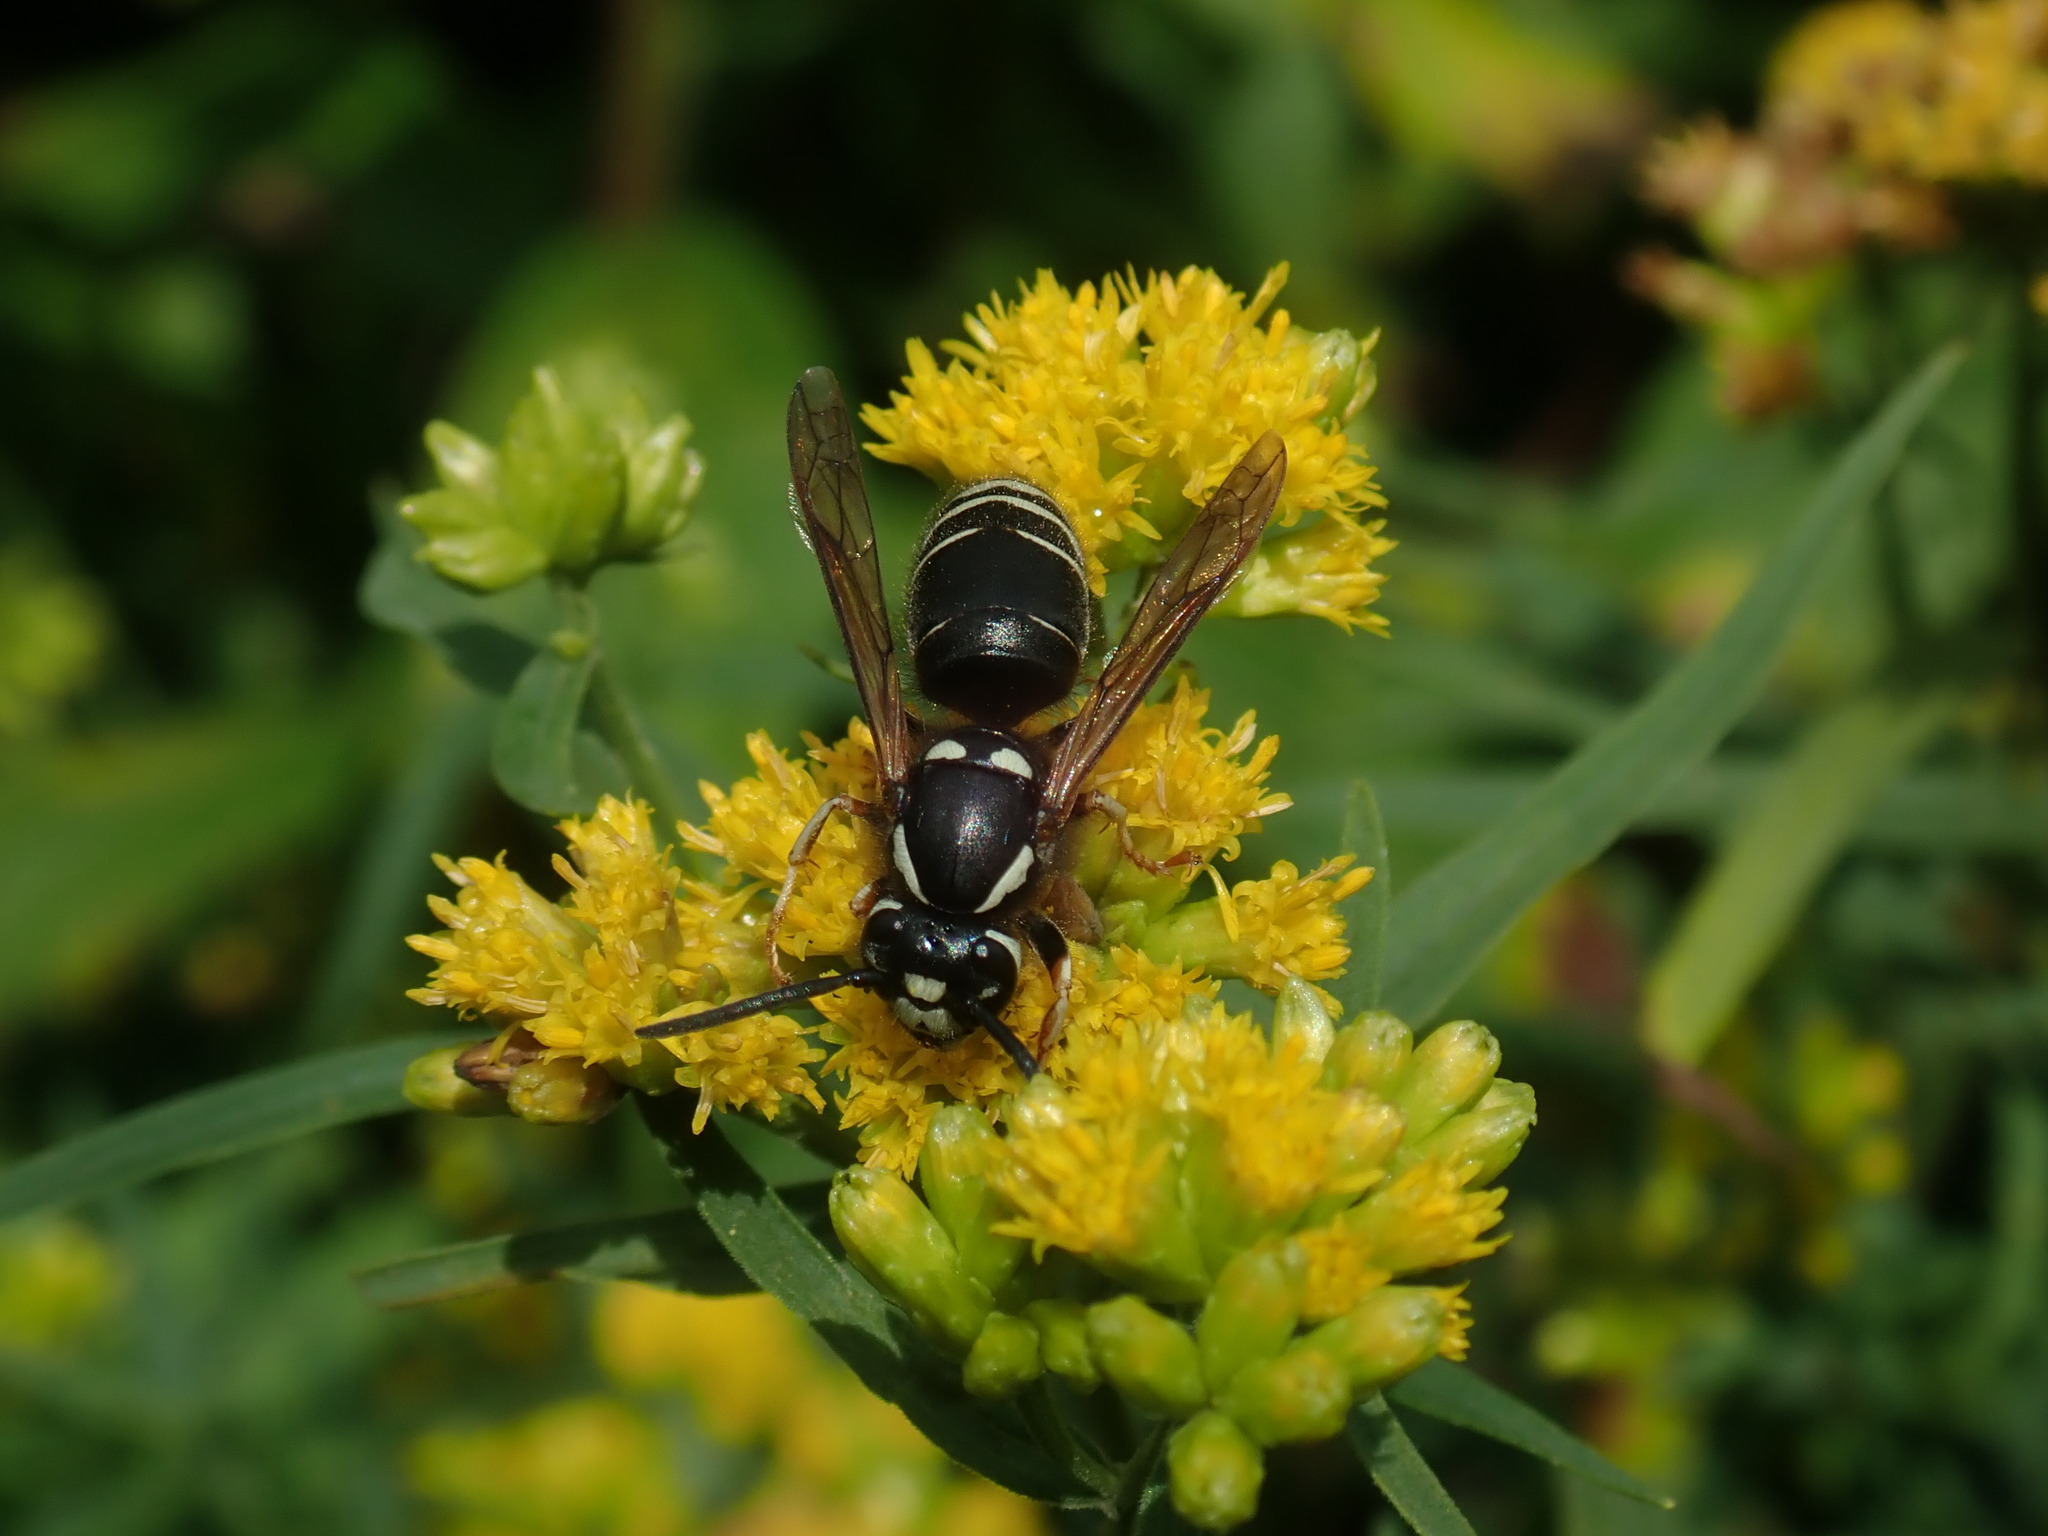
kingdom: Animalia
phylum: Arthropoda
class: Insecta
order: Hymenoptera
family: Vespidae
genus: Vespula
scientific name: Vespula consobrina
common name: Blackjacket
